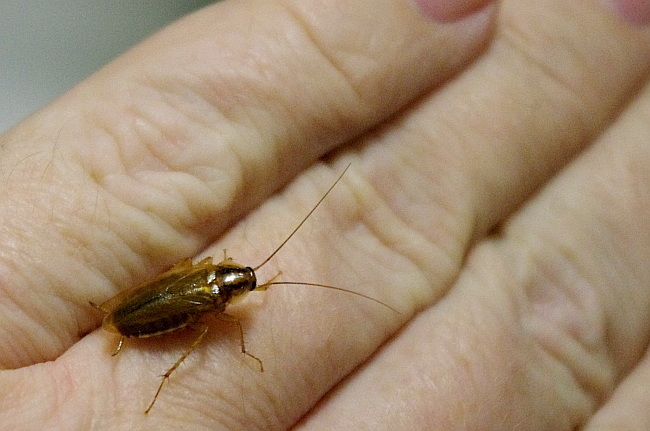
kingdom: Animalia
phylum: Arthropoda
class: Insecta
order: Blattodea
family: Ectobiidae
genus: Blattella
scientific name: Blattella germanica
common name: German cockroach
